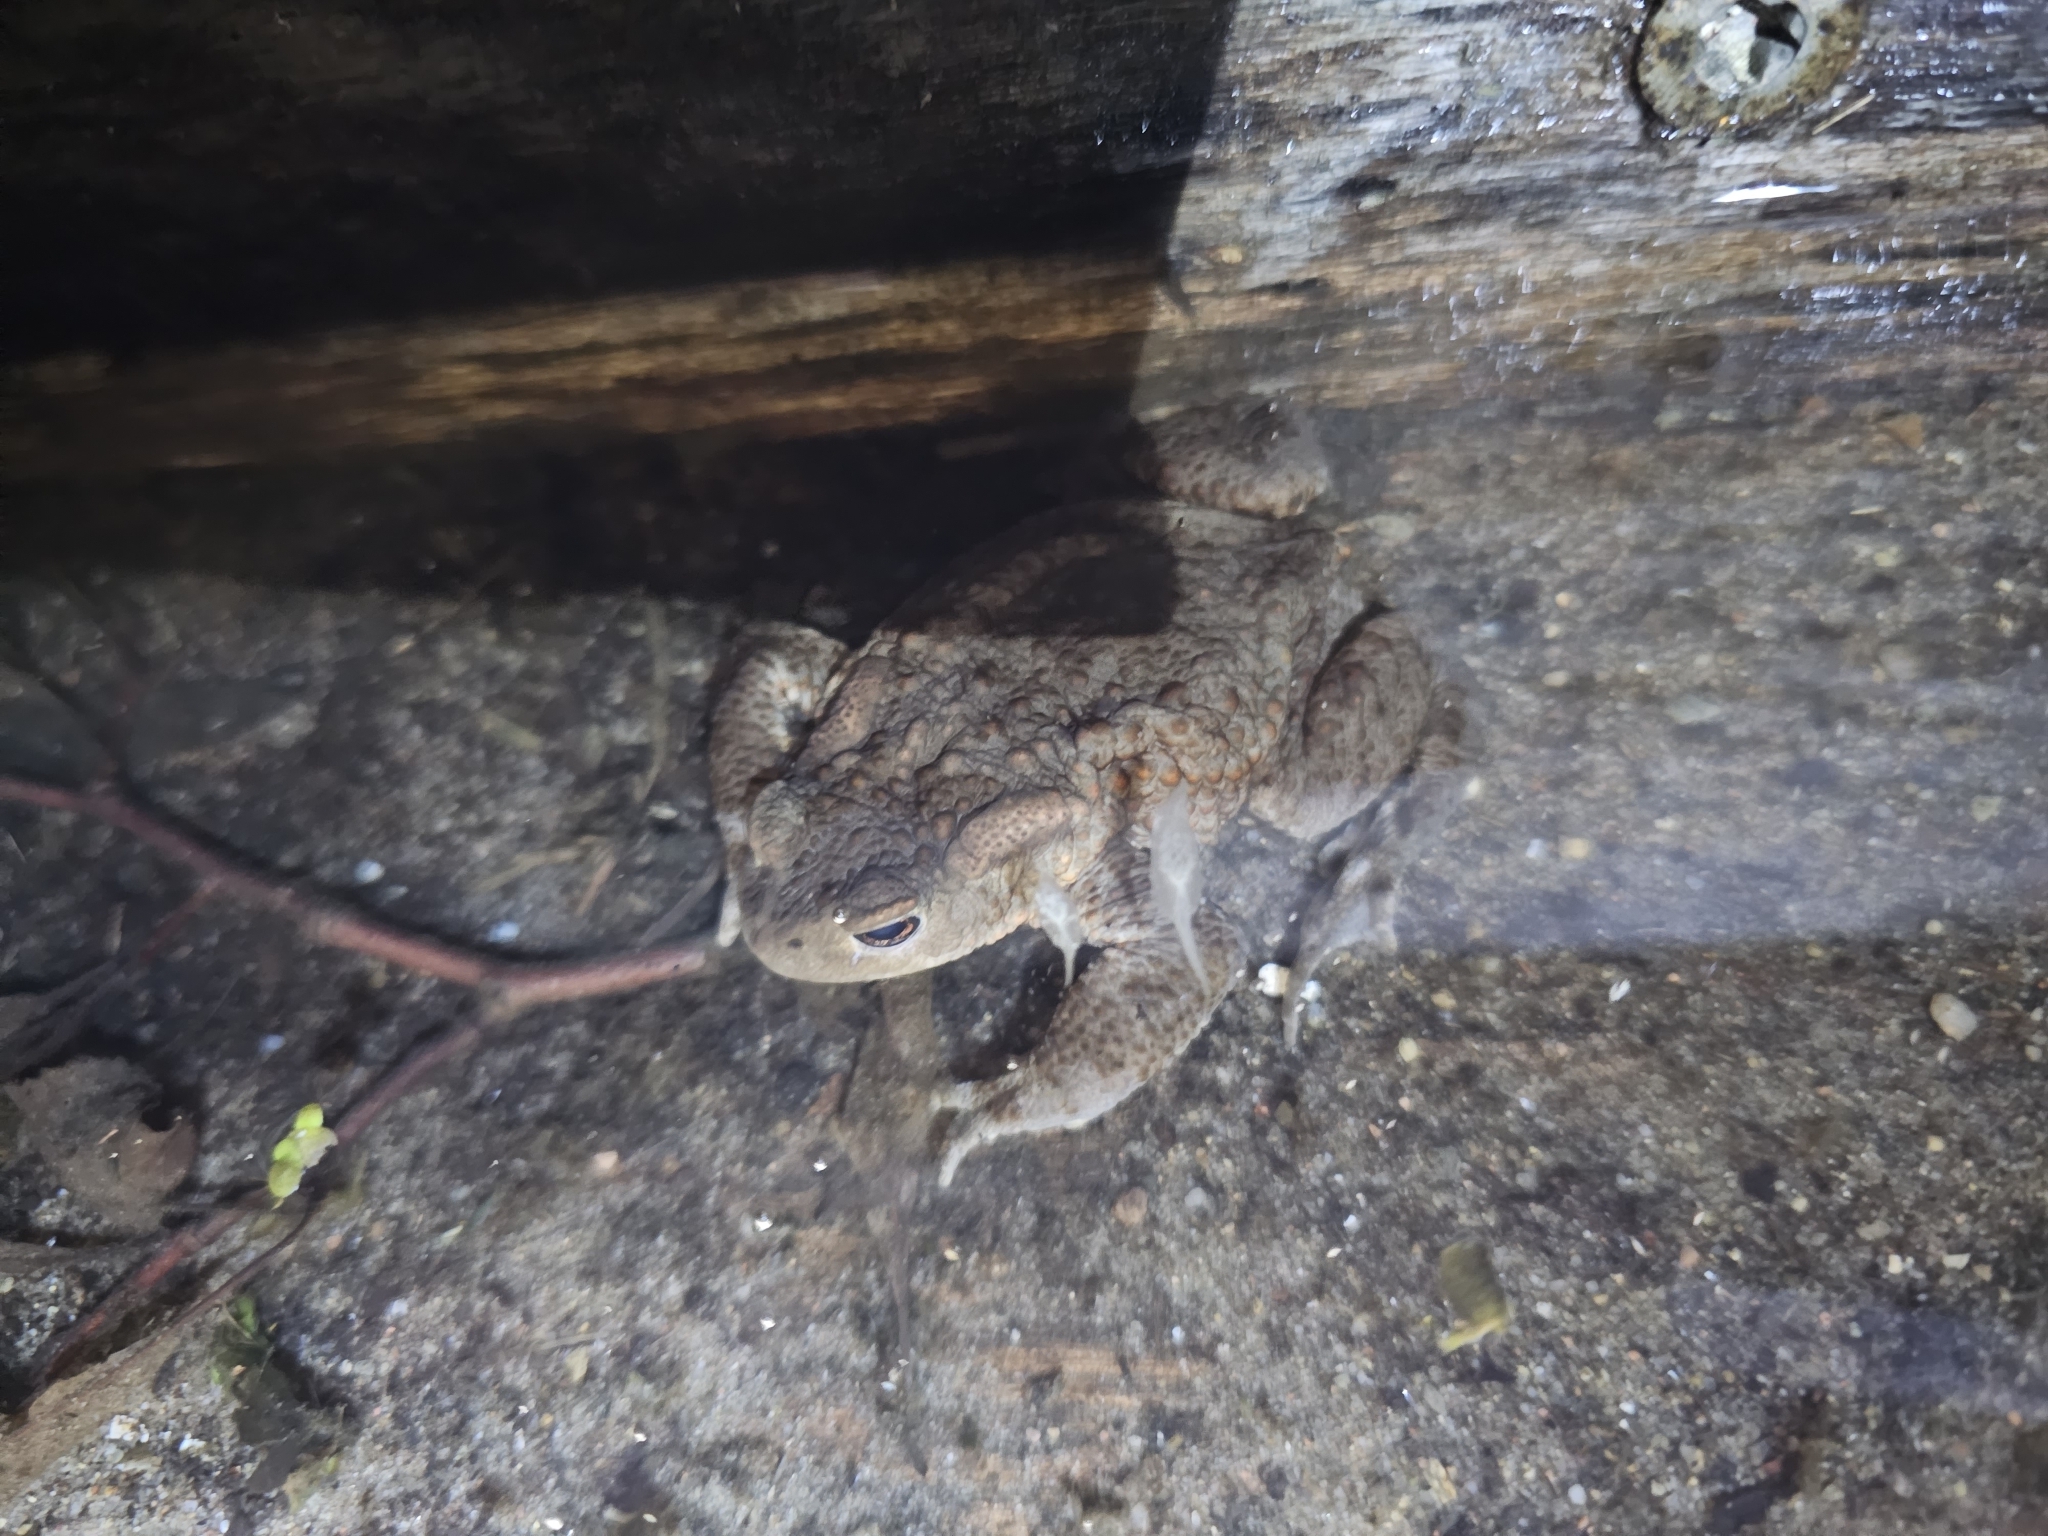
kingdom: Animalia
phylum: Chordata
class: Amphibia
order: Anura
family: Bufonidae
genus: Bufo
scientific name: Bufo bufo
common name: Common toad
